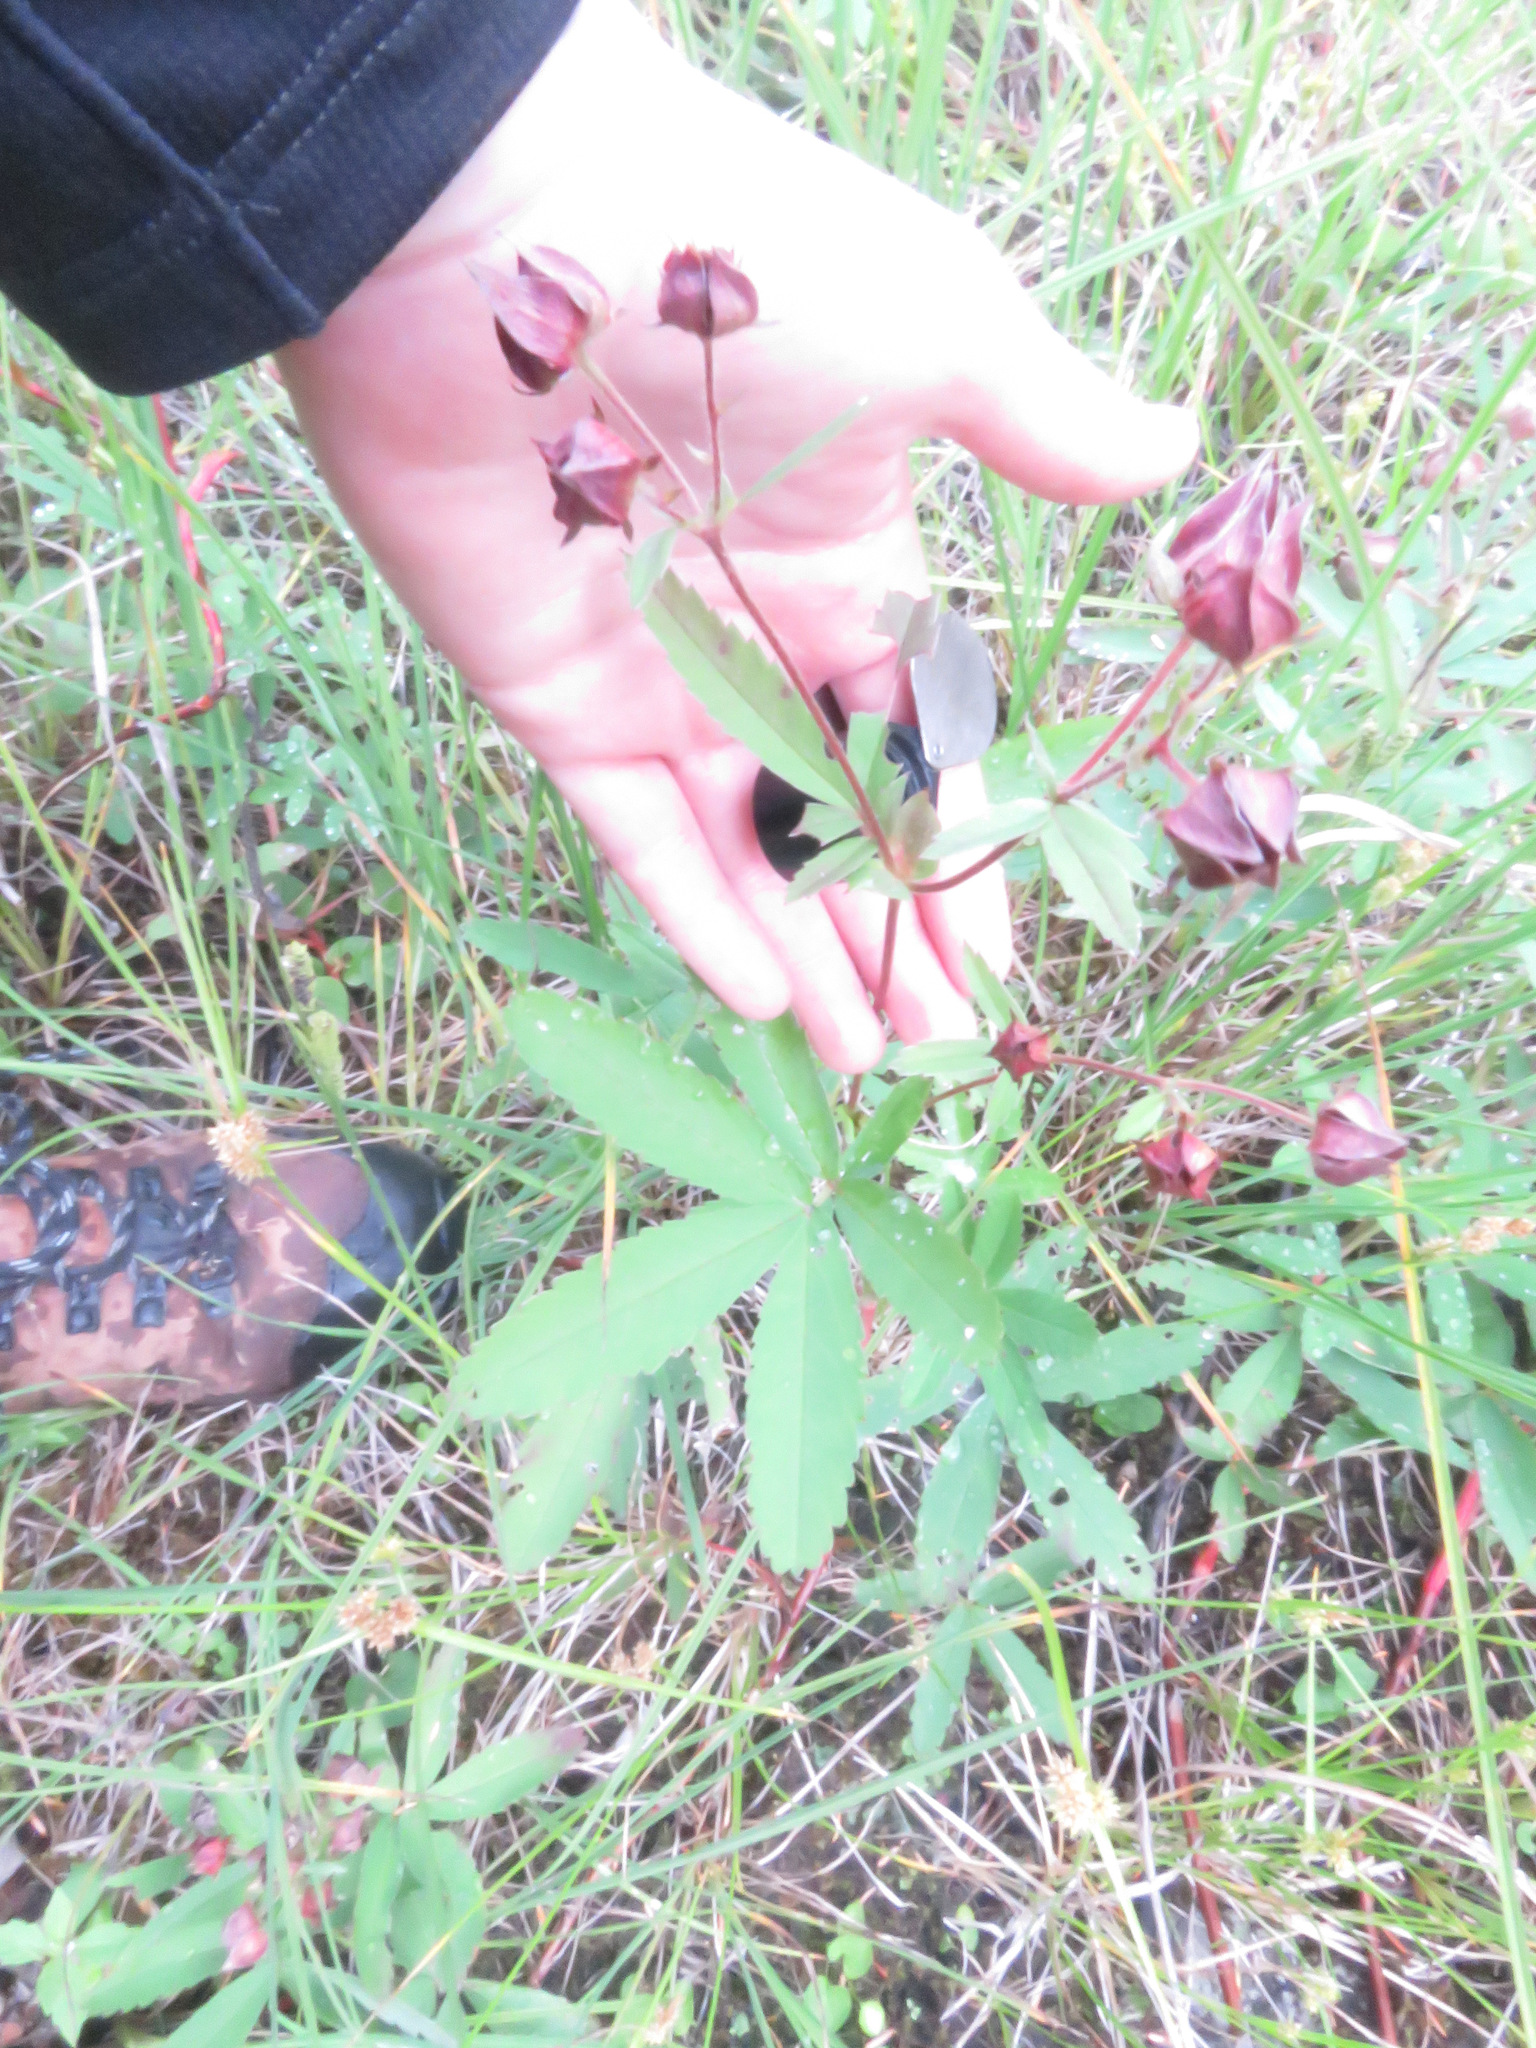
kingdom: Plantae
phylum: Tracheophyta
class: Magnoliopsida
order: Rosales
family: Rosaceae
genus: Comarum
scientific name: Comarum palustre
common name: Marsh cinquefoil
